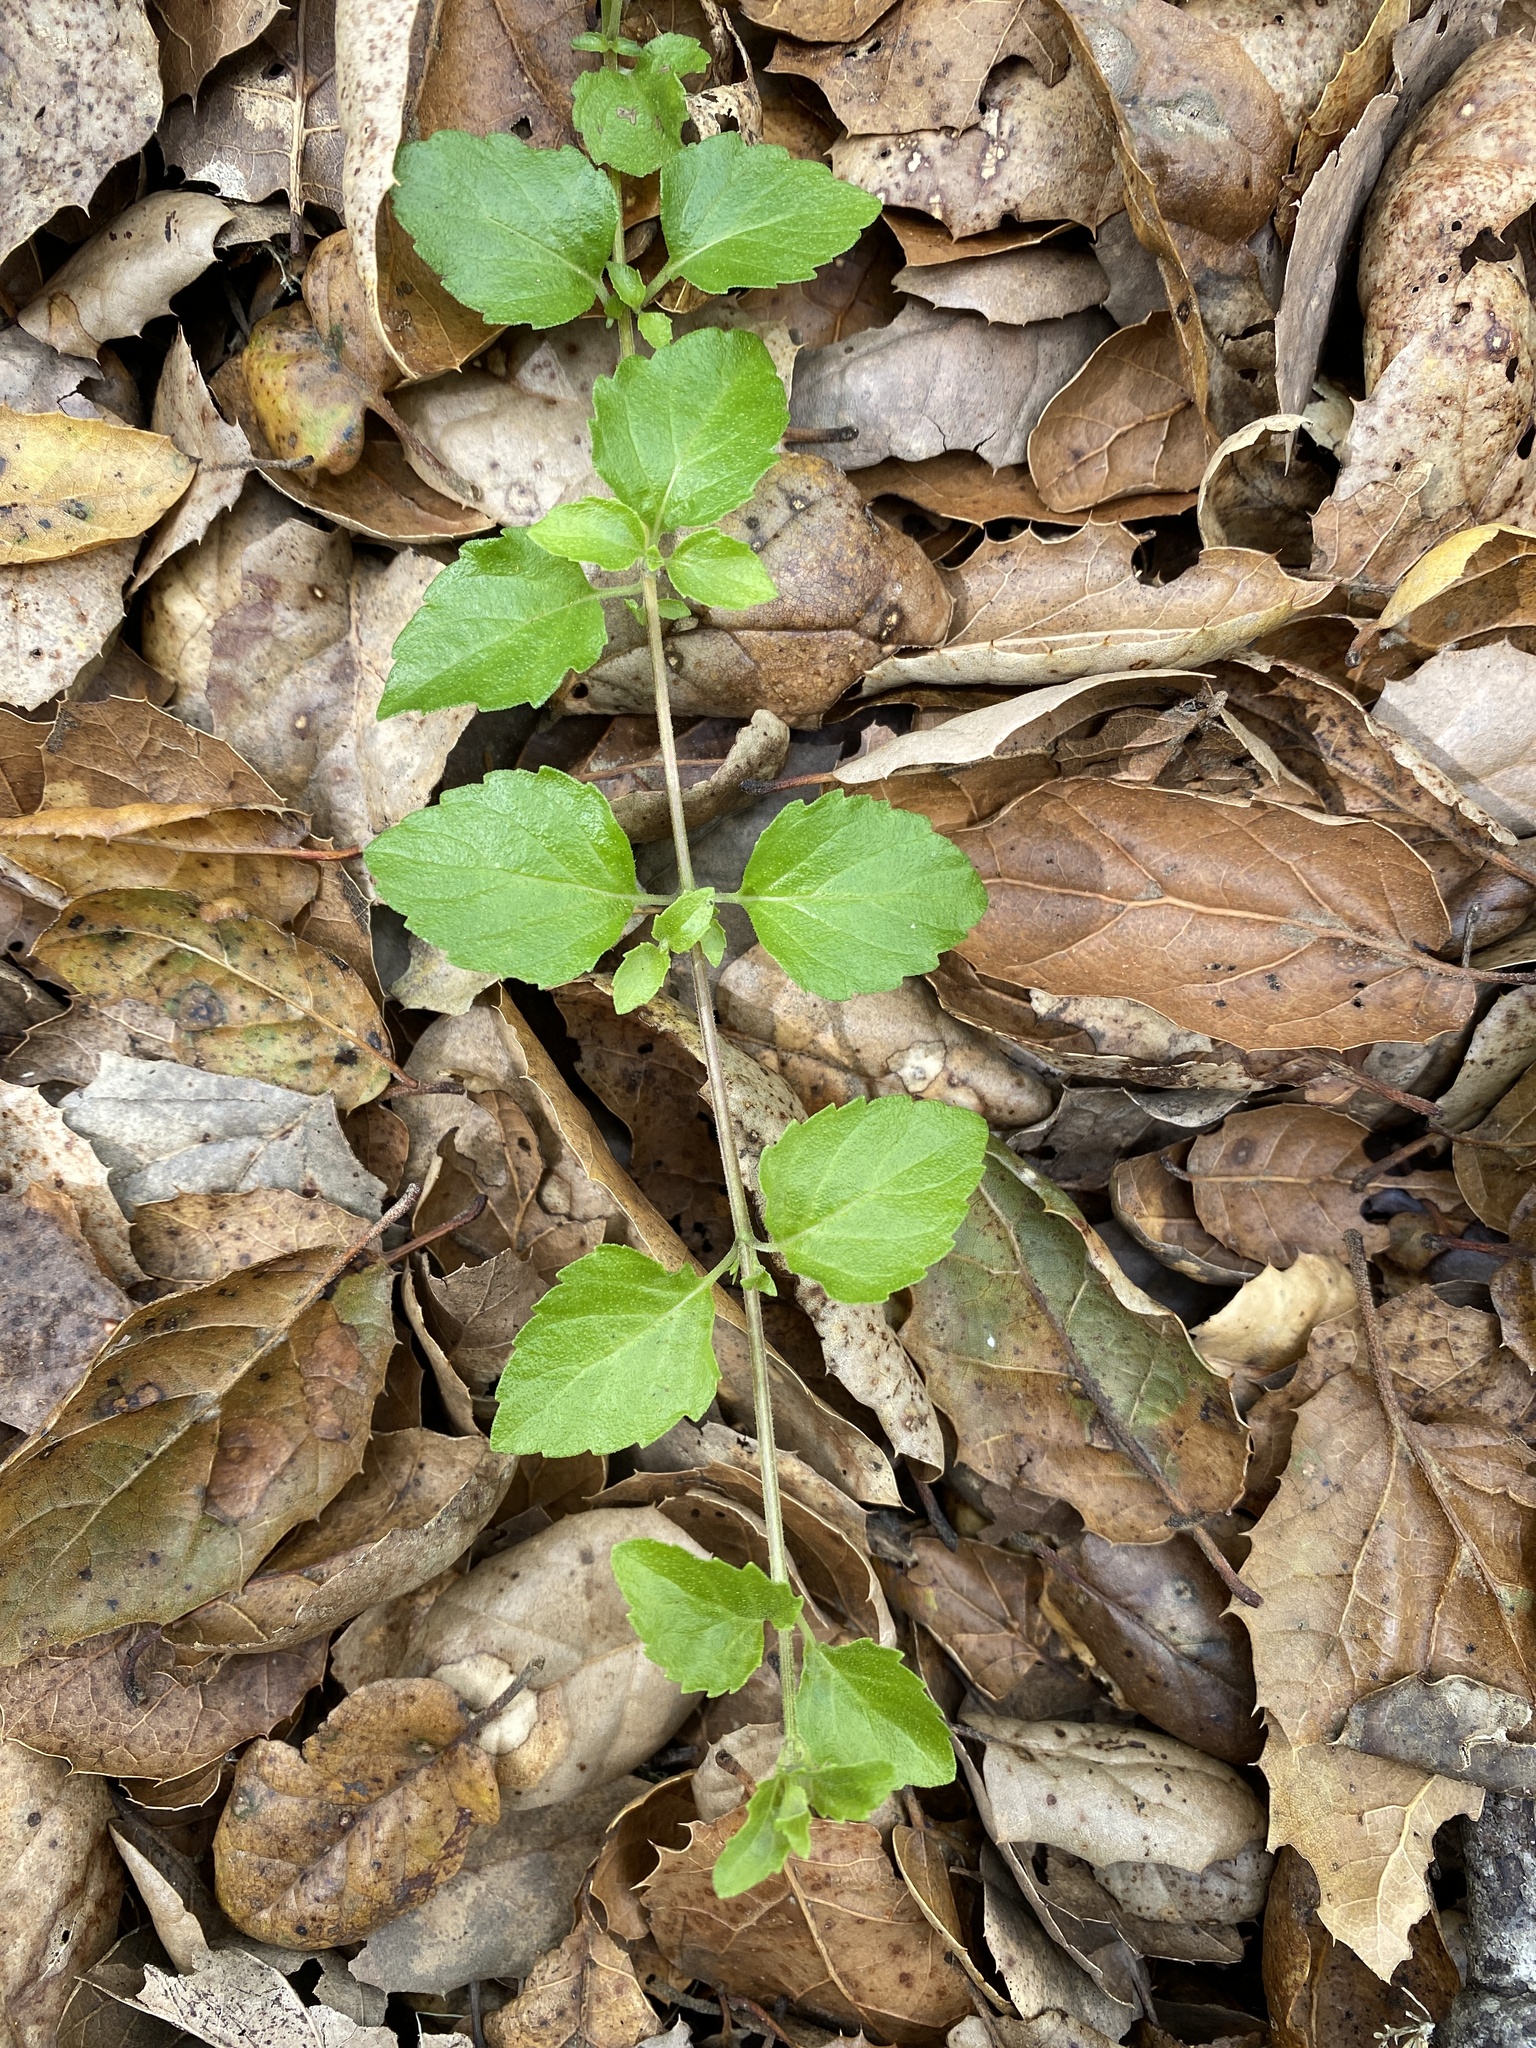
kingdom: Plantae
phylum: Tracheophyta
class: Magnoliopsida
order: Lamiales
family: Lamiaceae
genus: Micromeria
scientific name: Micromeria douglasii
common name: Yerba buena
